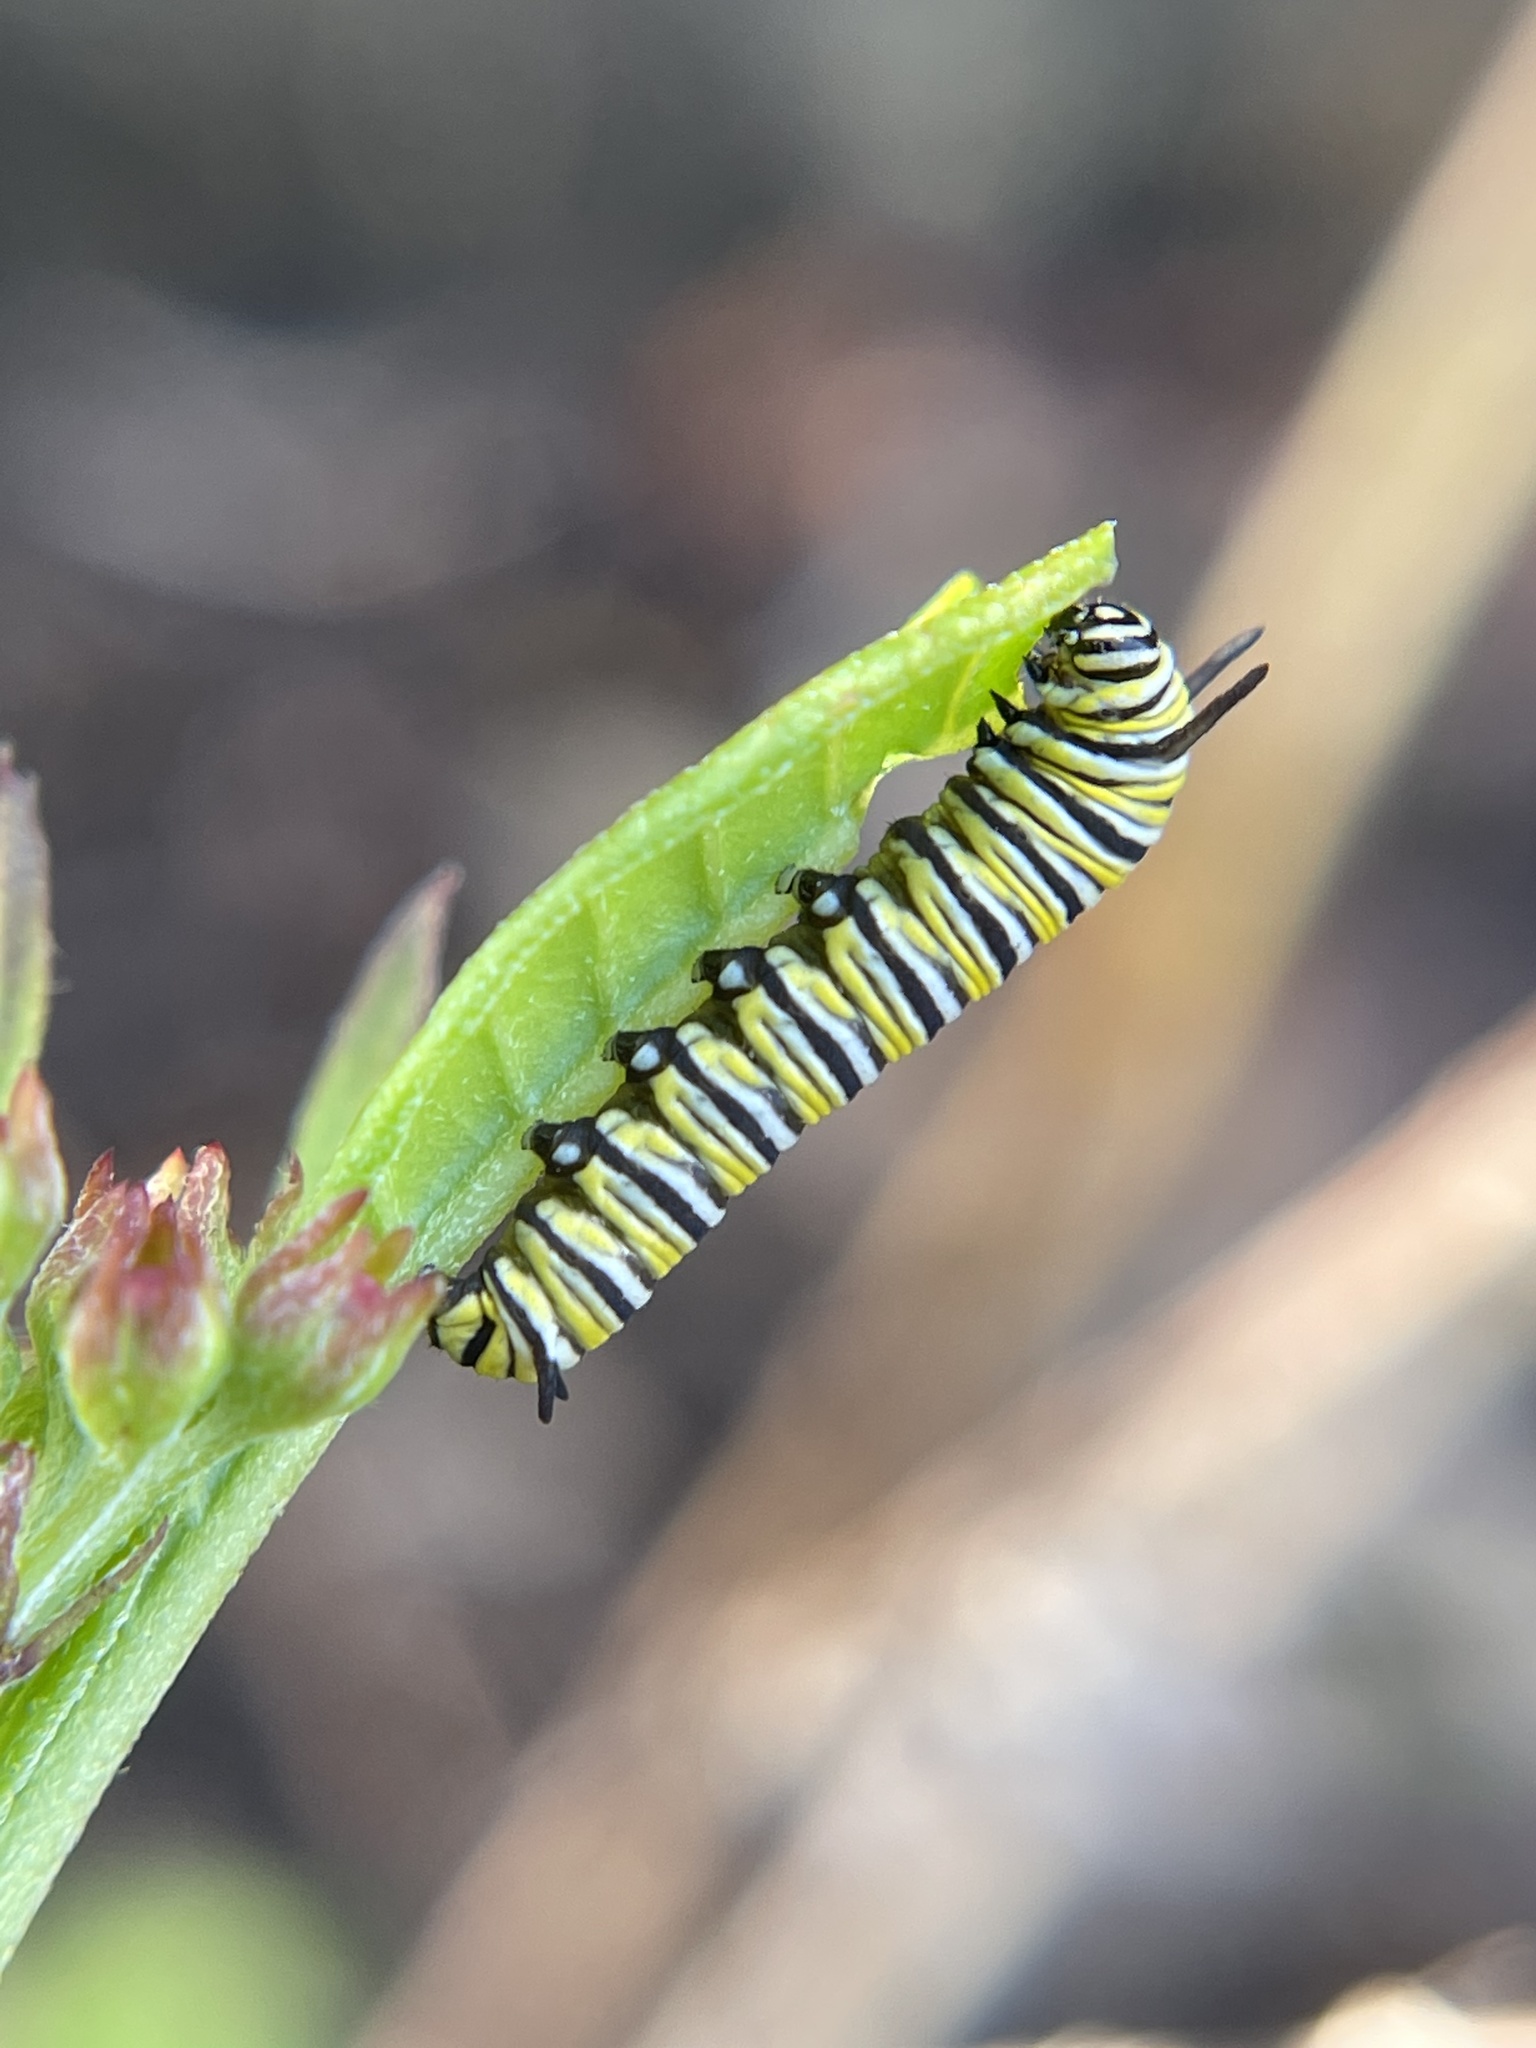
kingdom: Animalia
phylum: Arthropoda
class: Insecta
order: Lepidoptera
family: Nymphalidae
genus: Danaus
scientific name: Danaus plexippus
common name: Monarch
